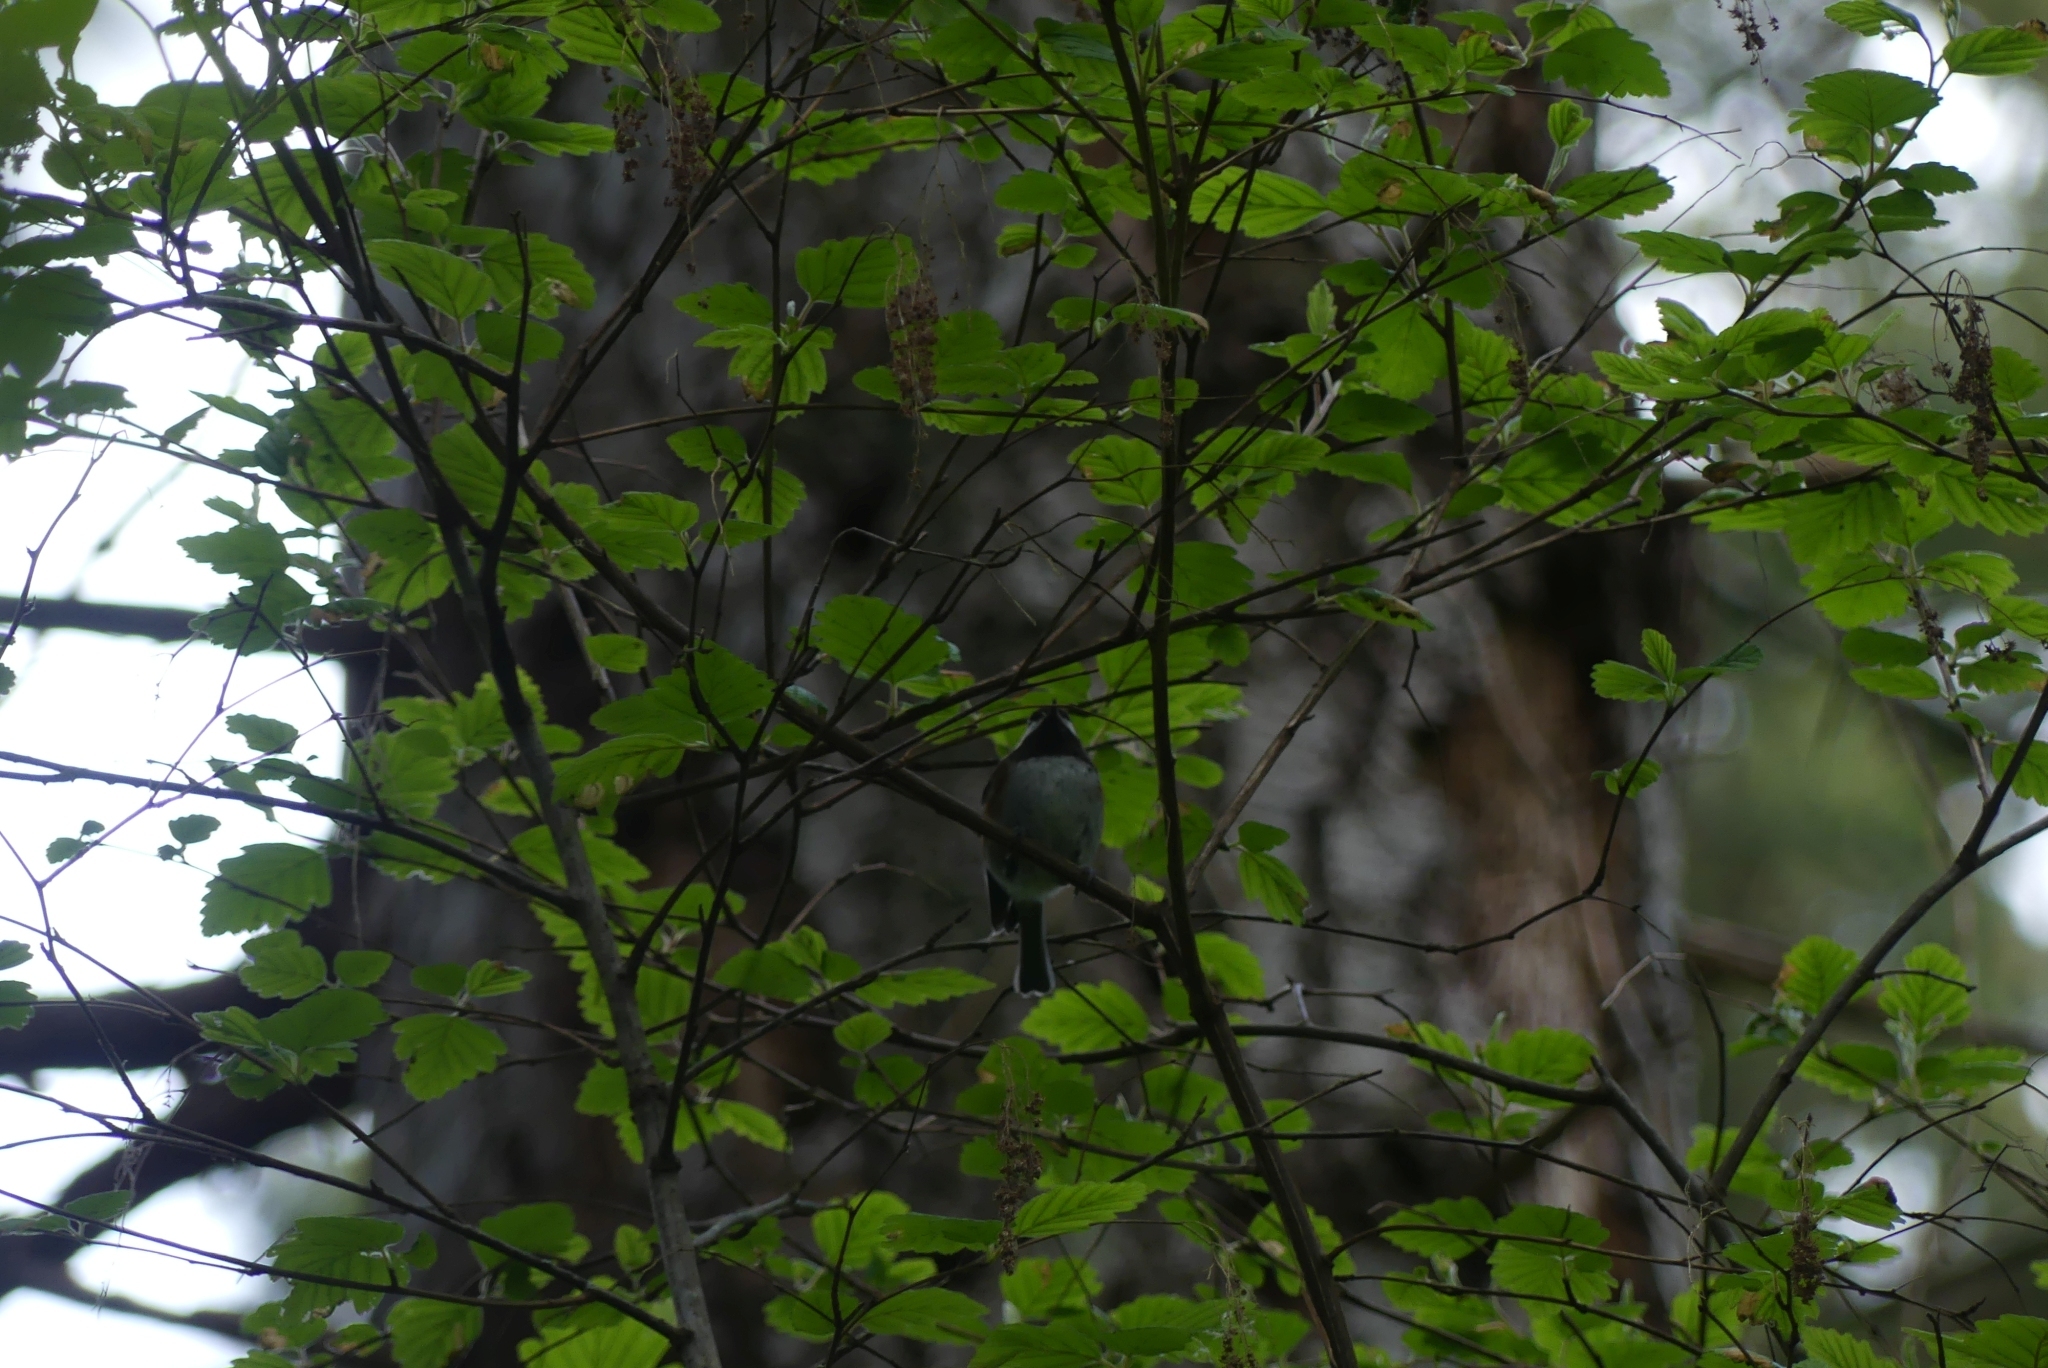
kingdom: Animalia
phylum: Chordata
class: Aves
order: Passeriformes
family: Paridae
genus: Poecile
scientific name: Poecile rufescens
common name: Chestnut-backed chickadee
